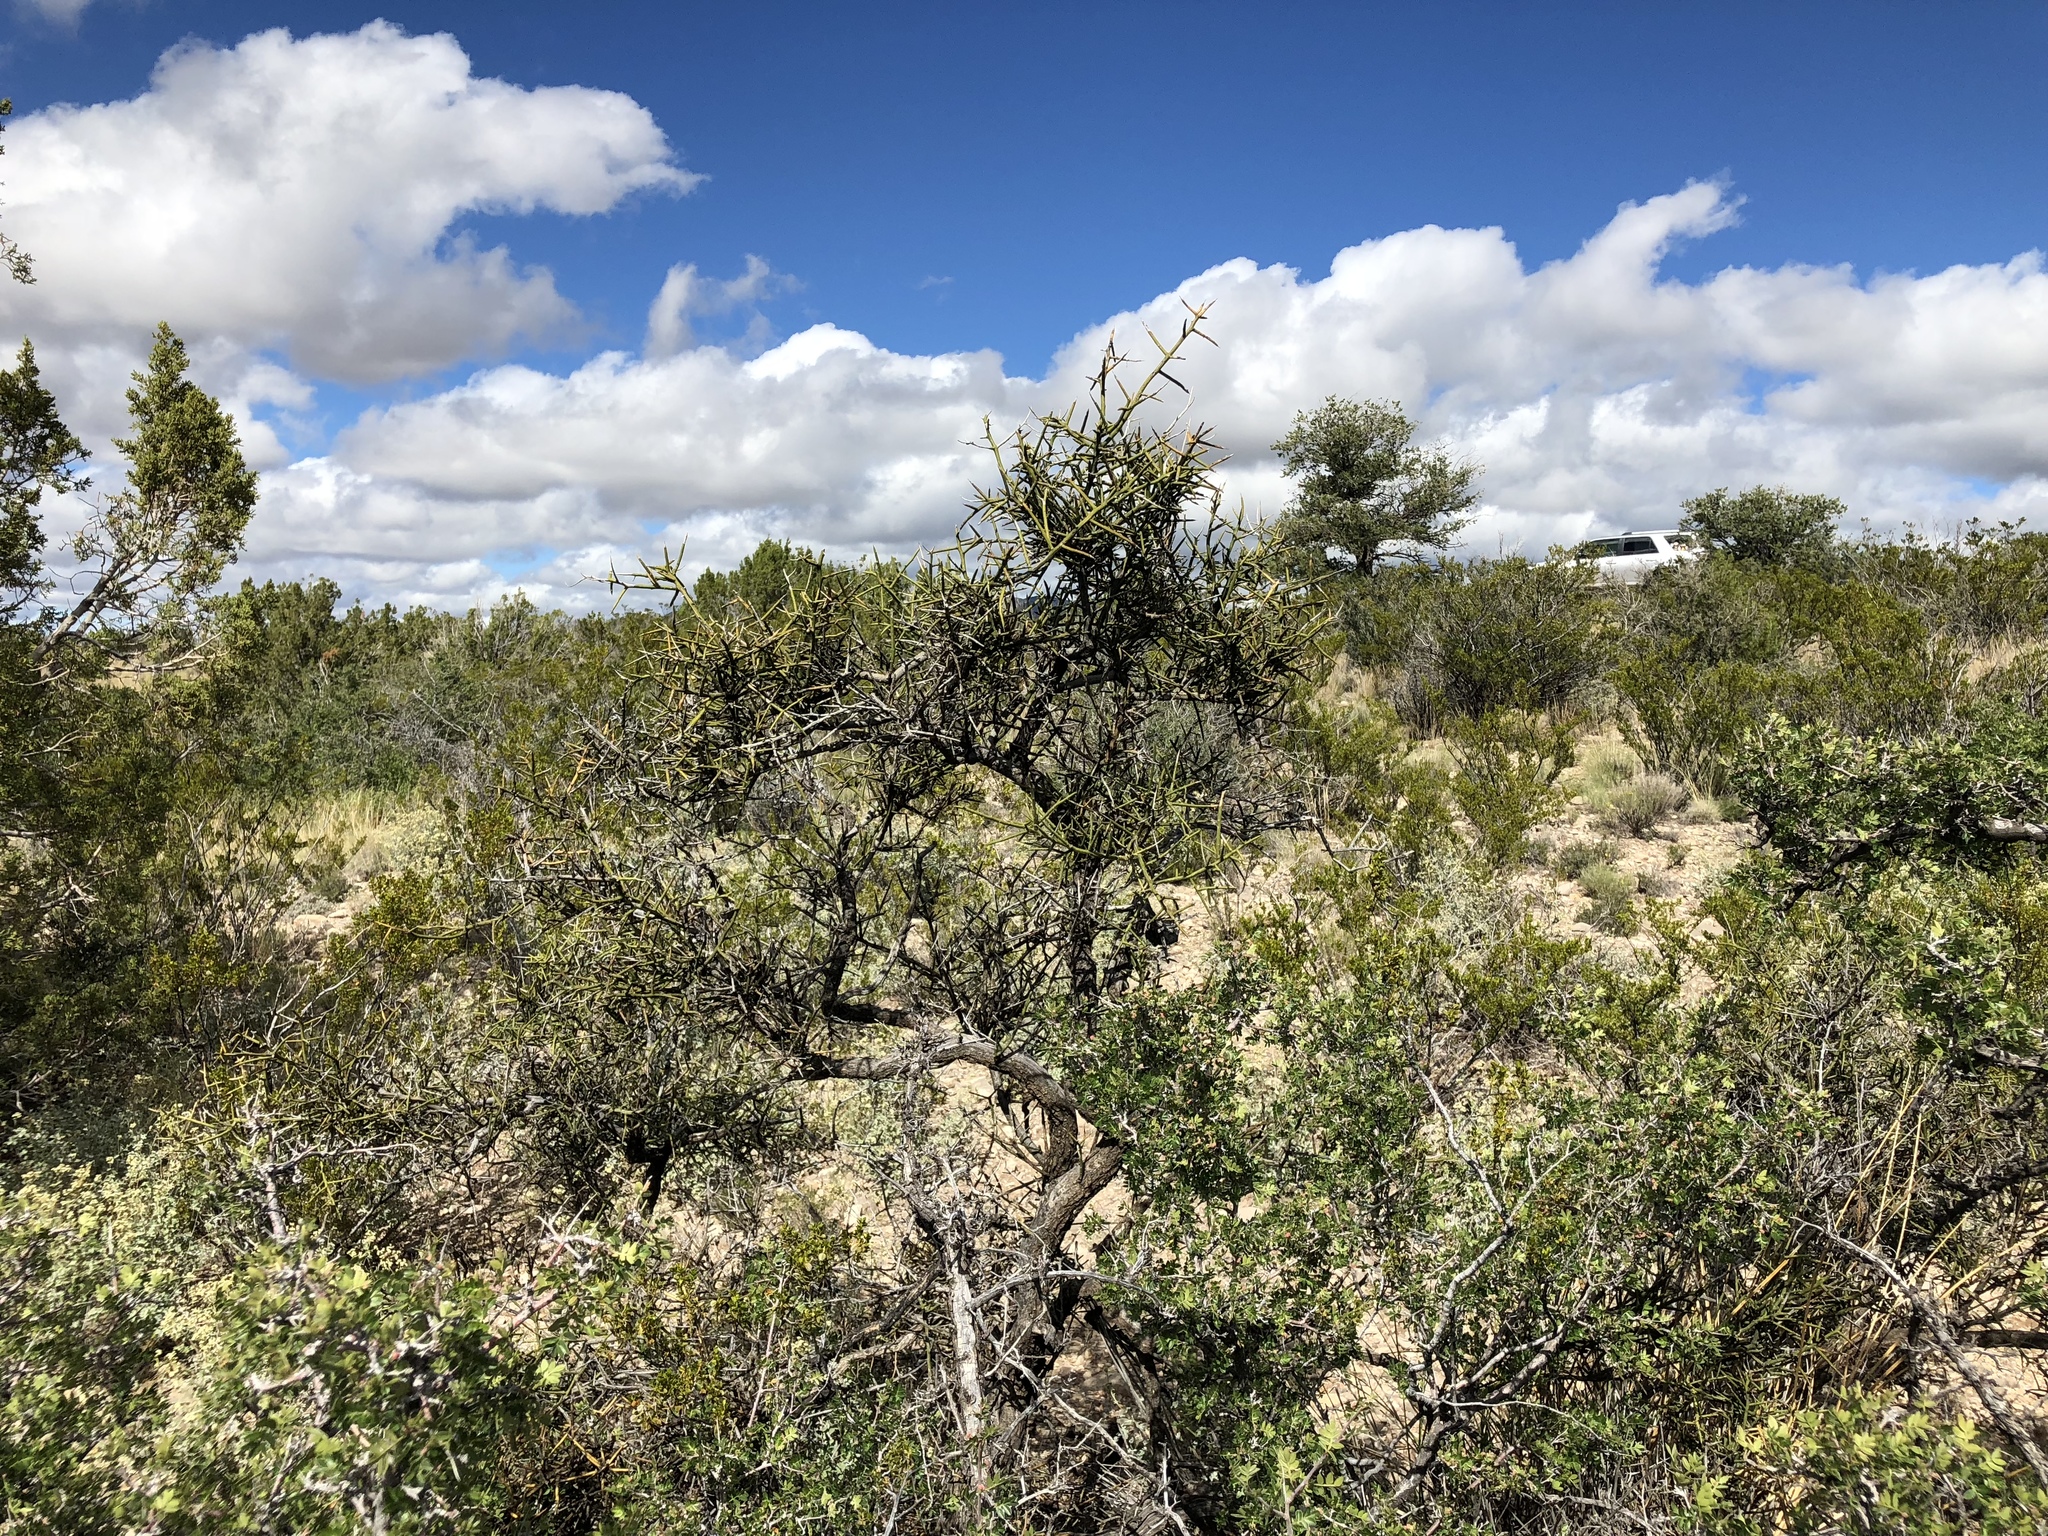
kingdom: Plantae
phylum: Tracheophyta
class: Magnoliopsida
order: Brassicales
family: Koeberliniaceae
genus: Koeberlinia
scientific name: Koeberlinia spinosa
